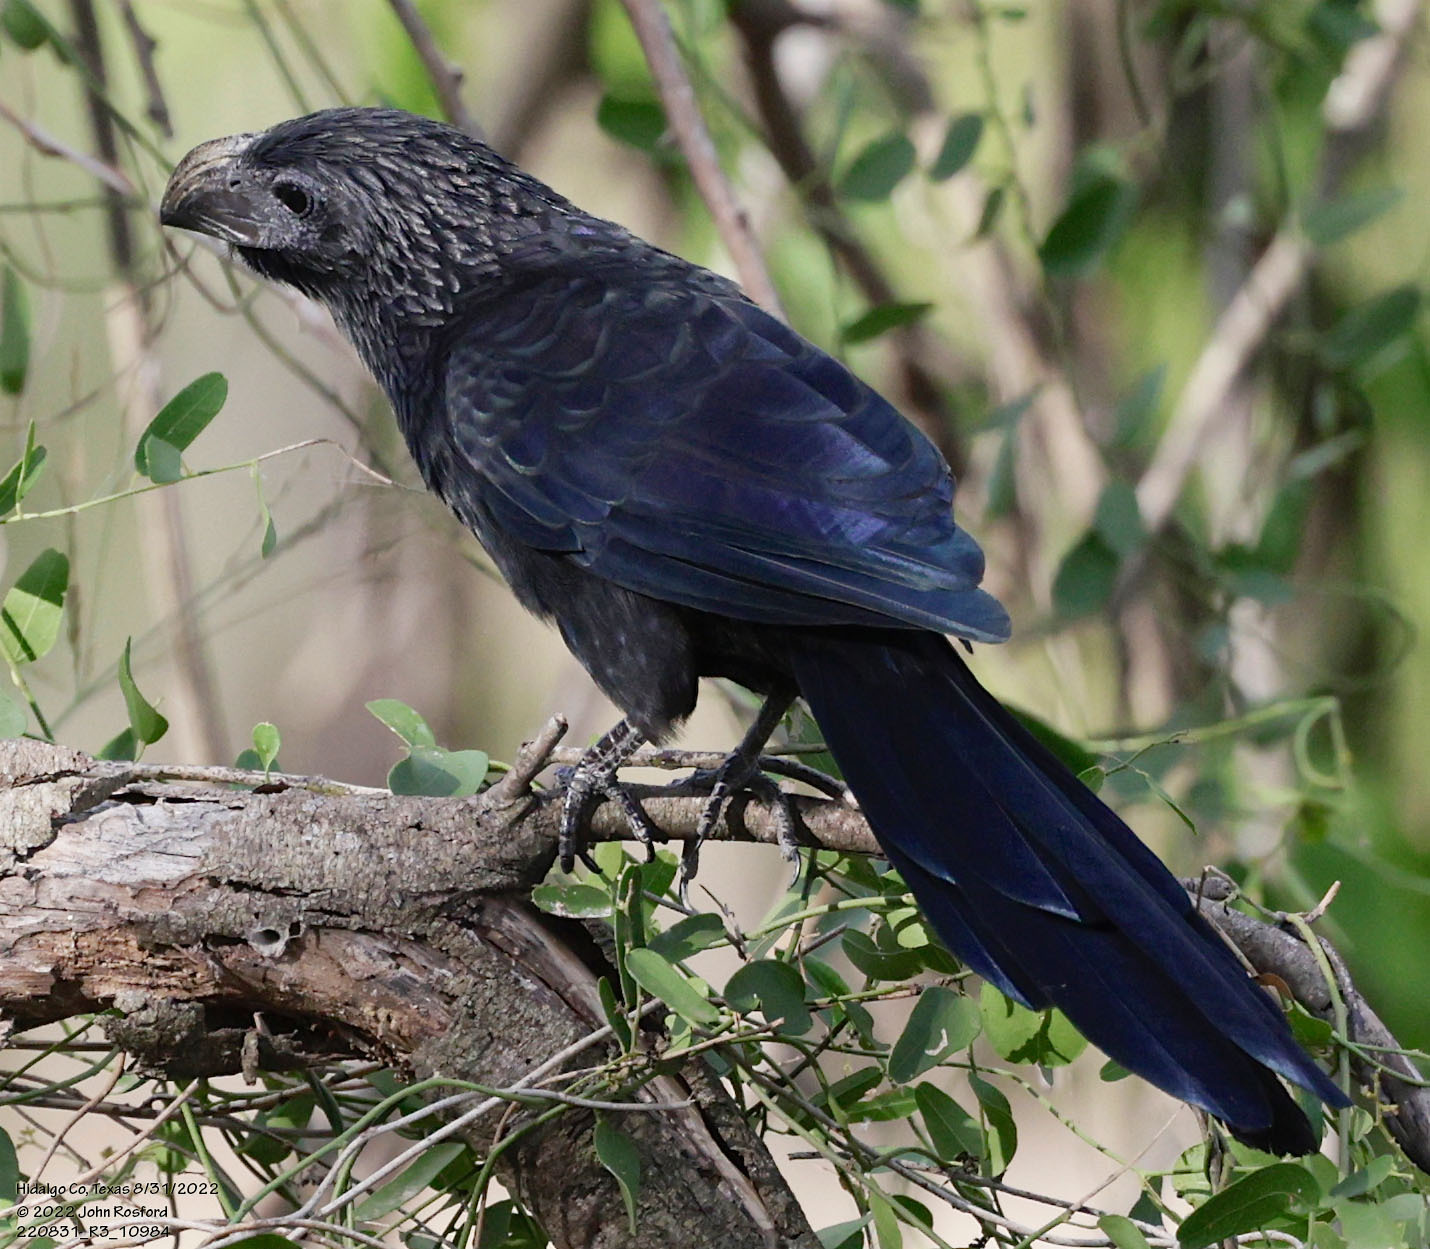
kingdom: Animalia
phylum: Chordata
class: Aves
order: Cuculiformes
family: Cuculidae
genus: Crotophaga
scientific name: Crotophaga sulcirostris
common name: Groove-billed ani
